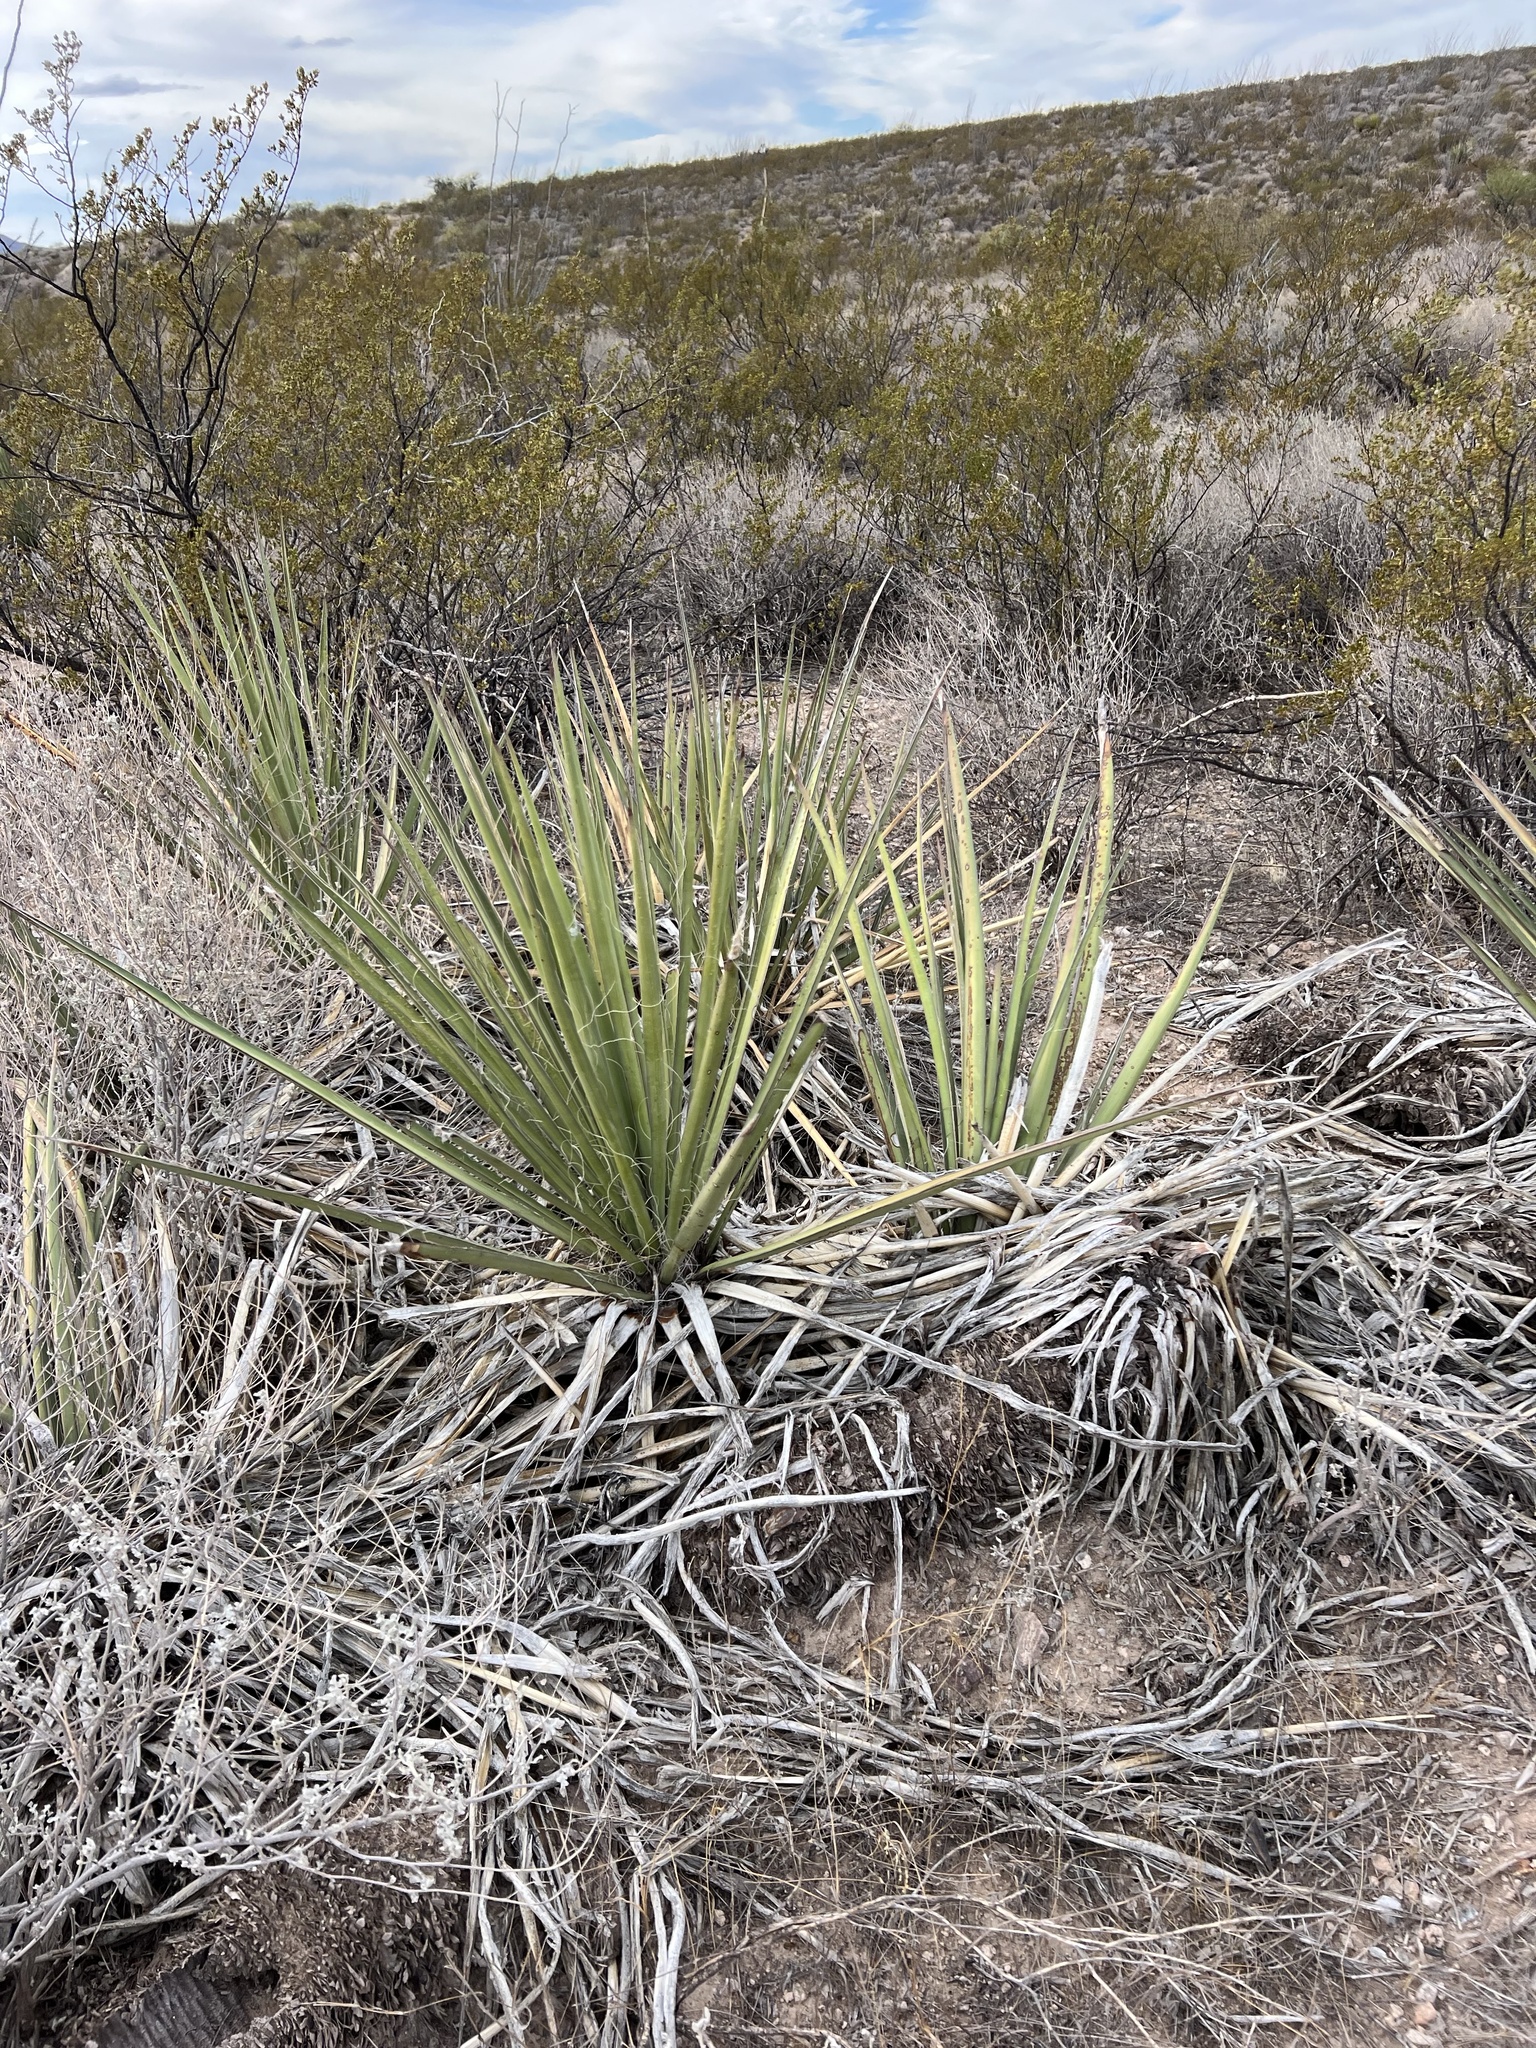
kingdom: Plantae
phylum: Tracheophyta
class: Liliopsida
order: Asparagales
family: Asparagaceae
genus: Yucca
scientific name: Yucca baccata
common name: Banana yucca
